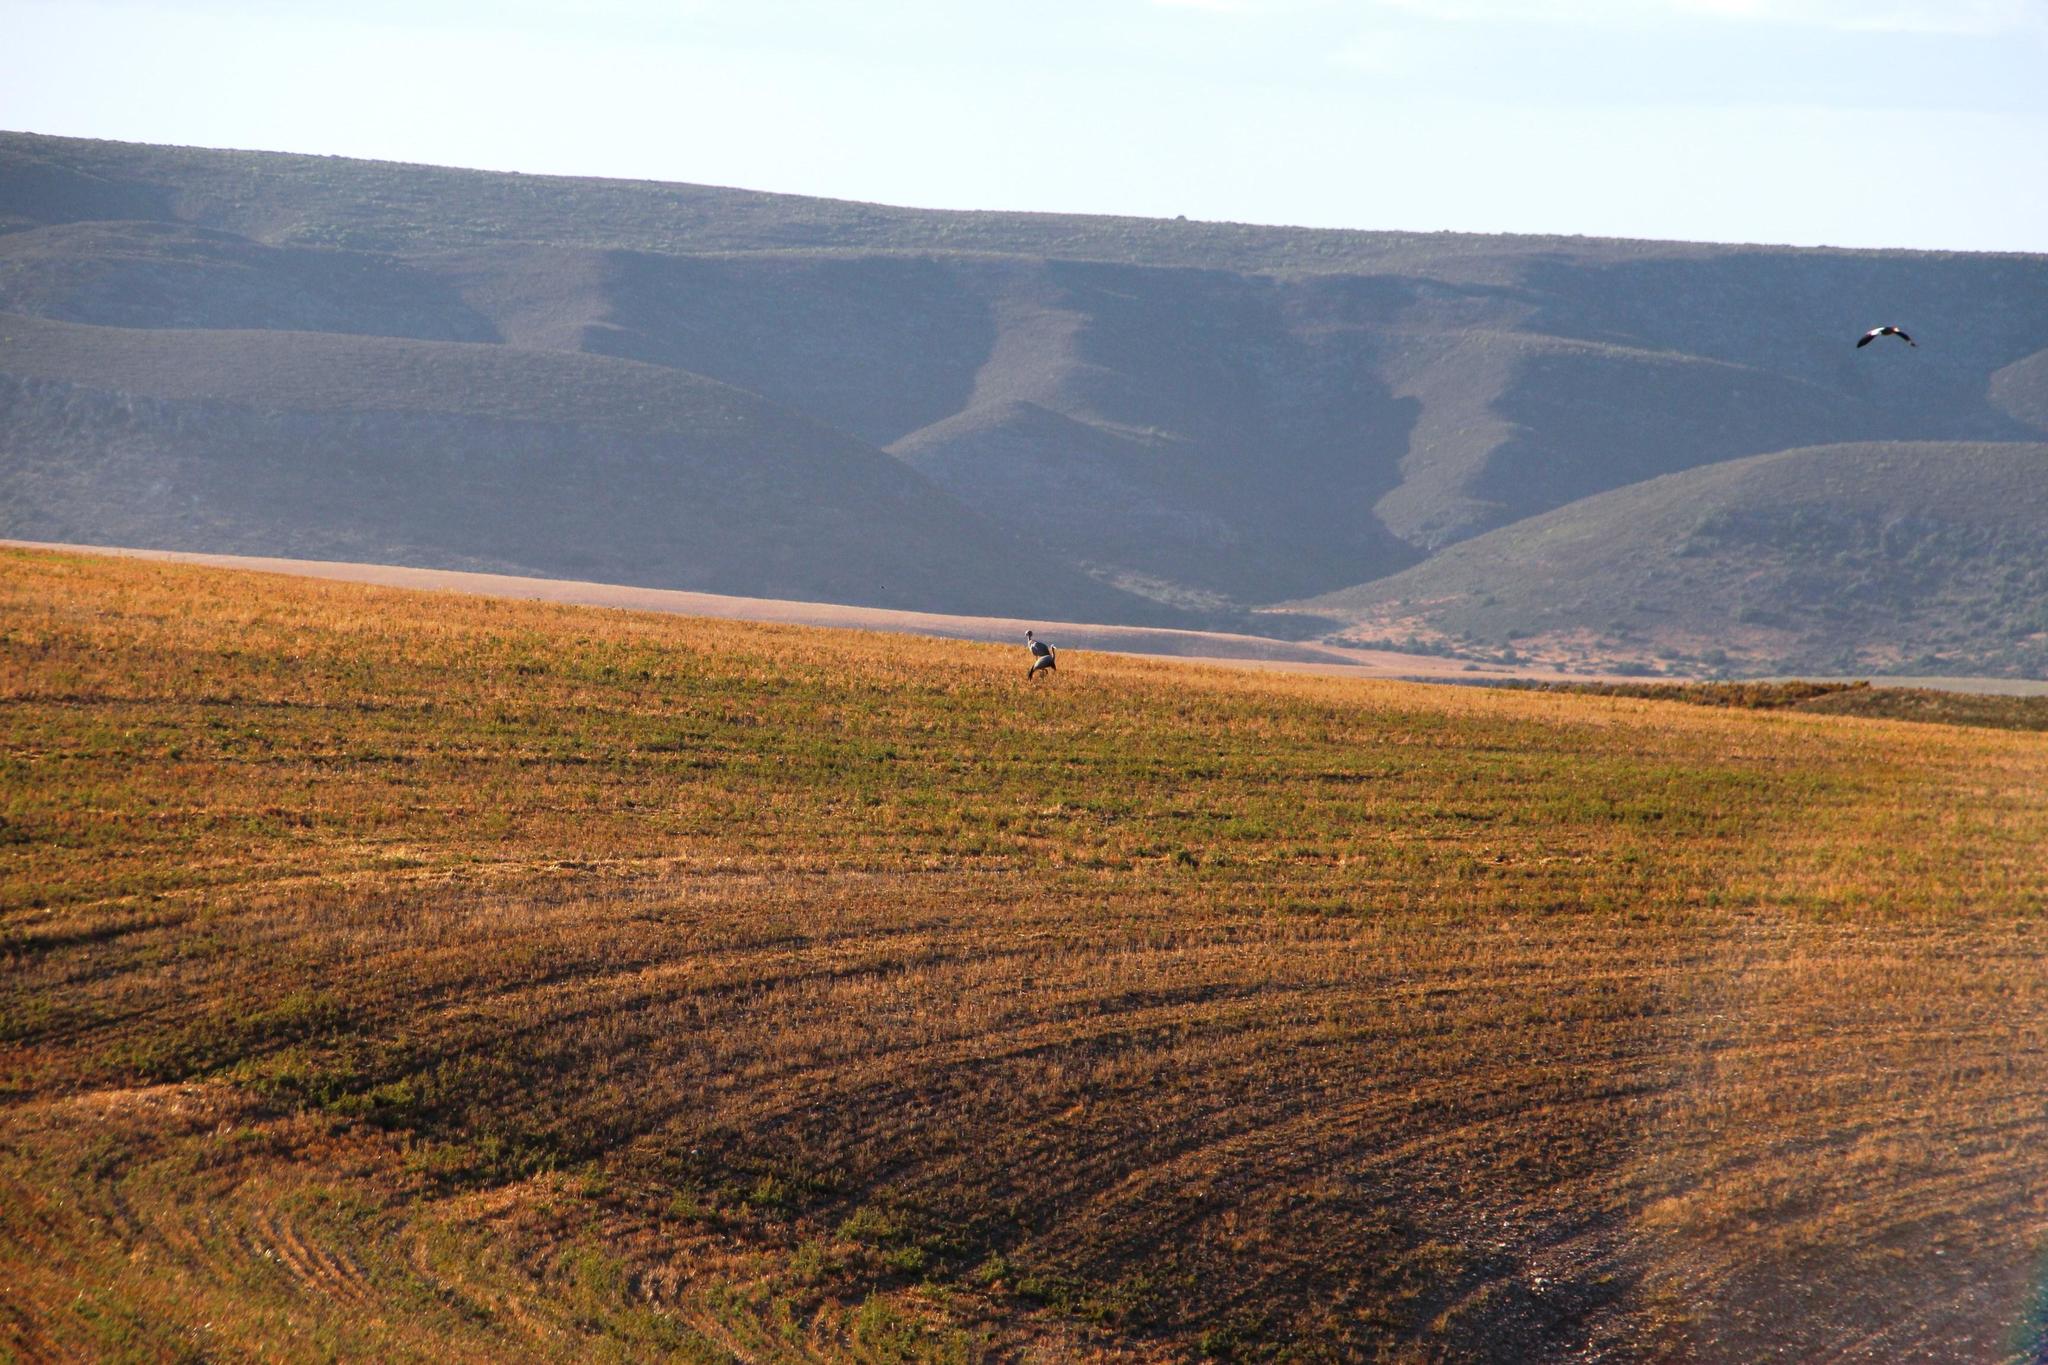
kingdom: Animalia
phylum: Chordata
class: Aves
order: Gruiformes
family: Gruidae
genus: Anthropoides
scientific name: Anthropoides paradiseus
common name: Blue crane
